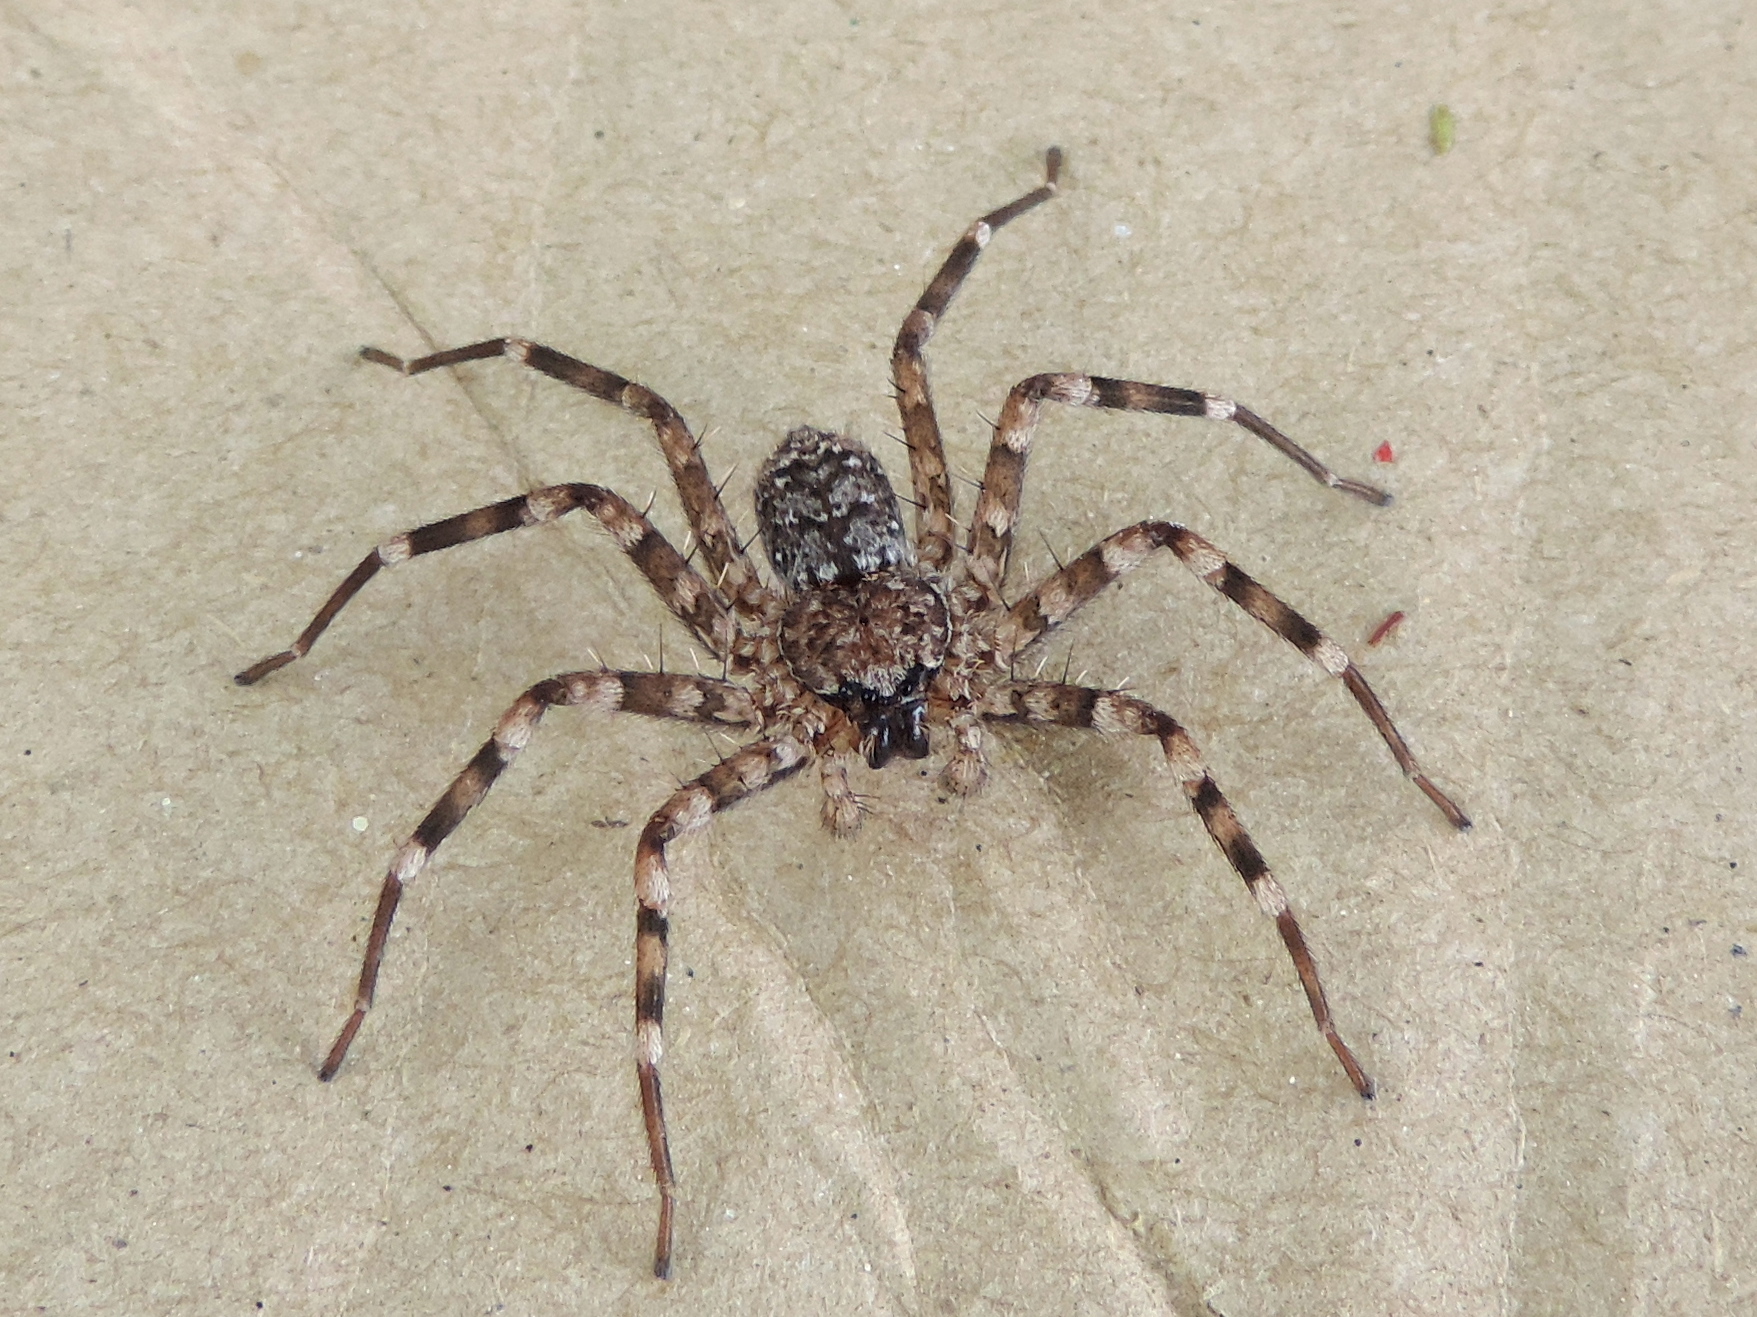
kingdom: Animalia
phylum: Arthropoda
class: Arachnida
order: Araneae
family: Selenopidae
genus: Selenops
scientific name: Selenops
